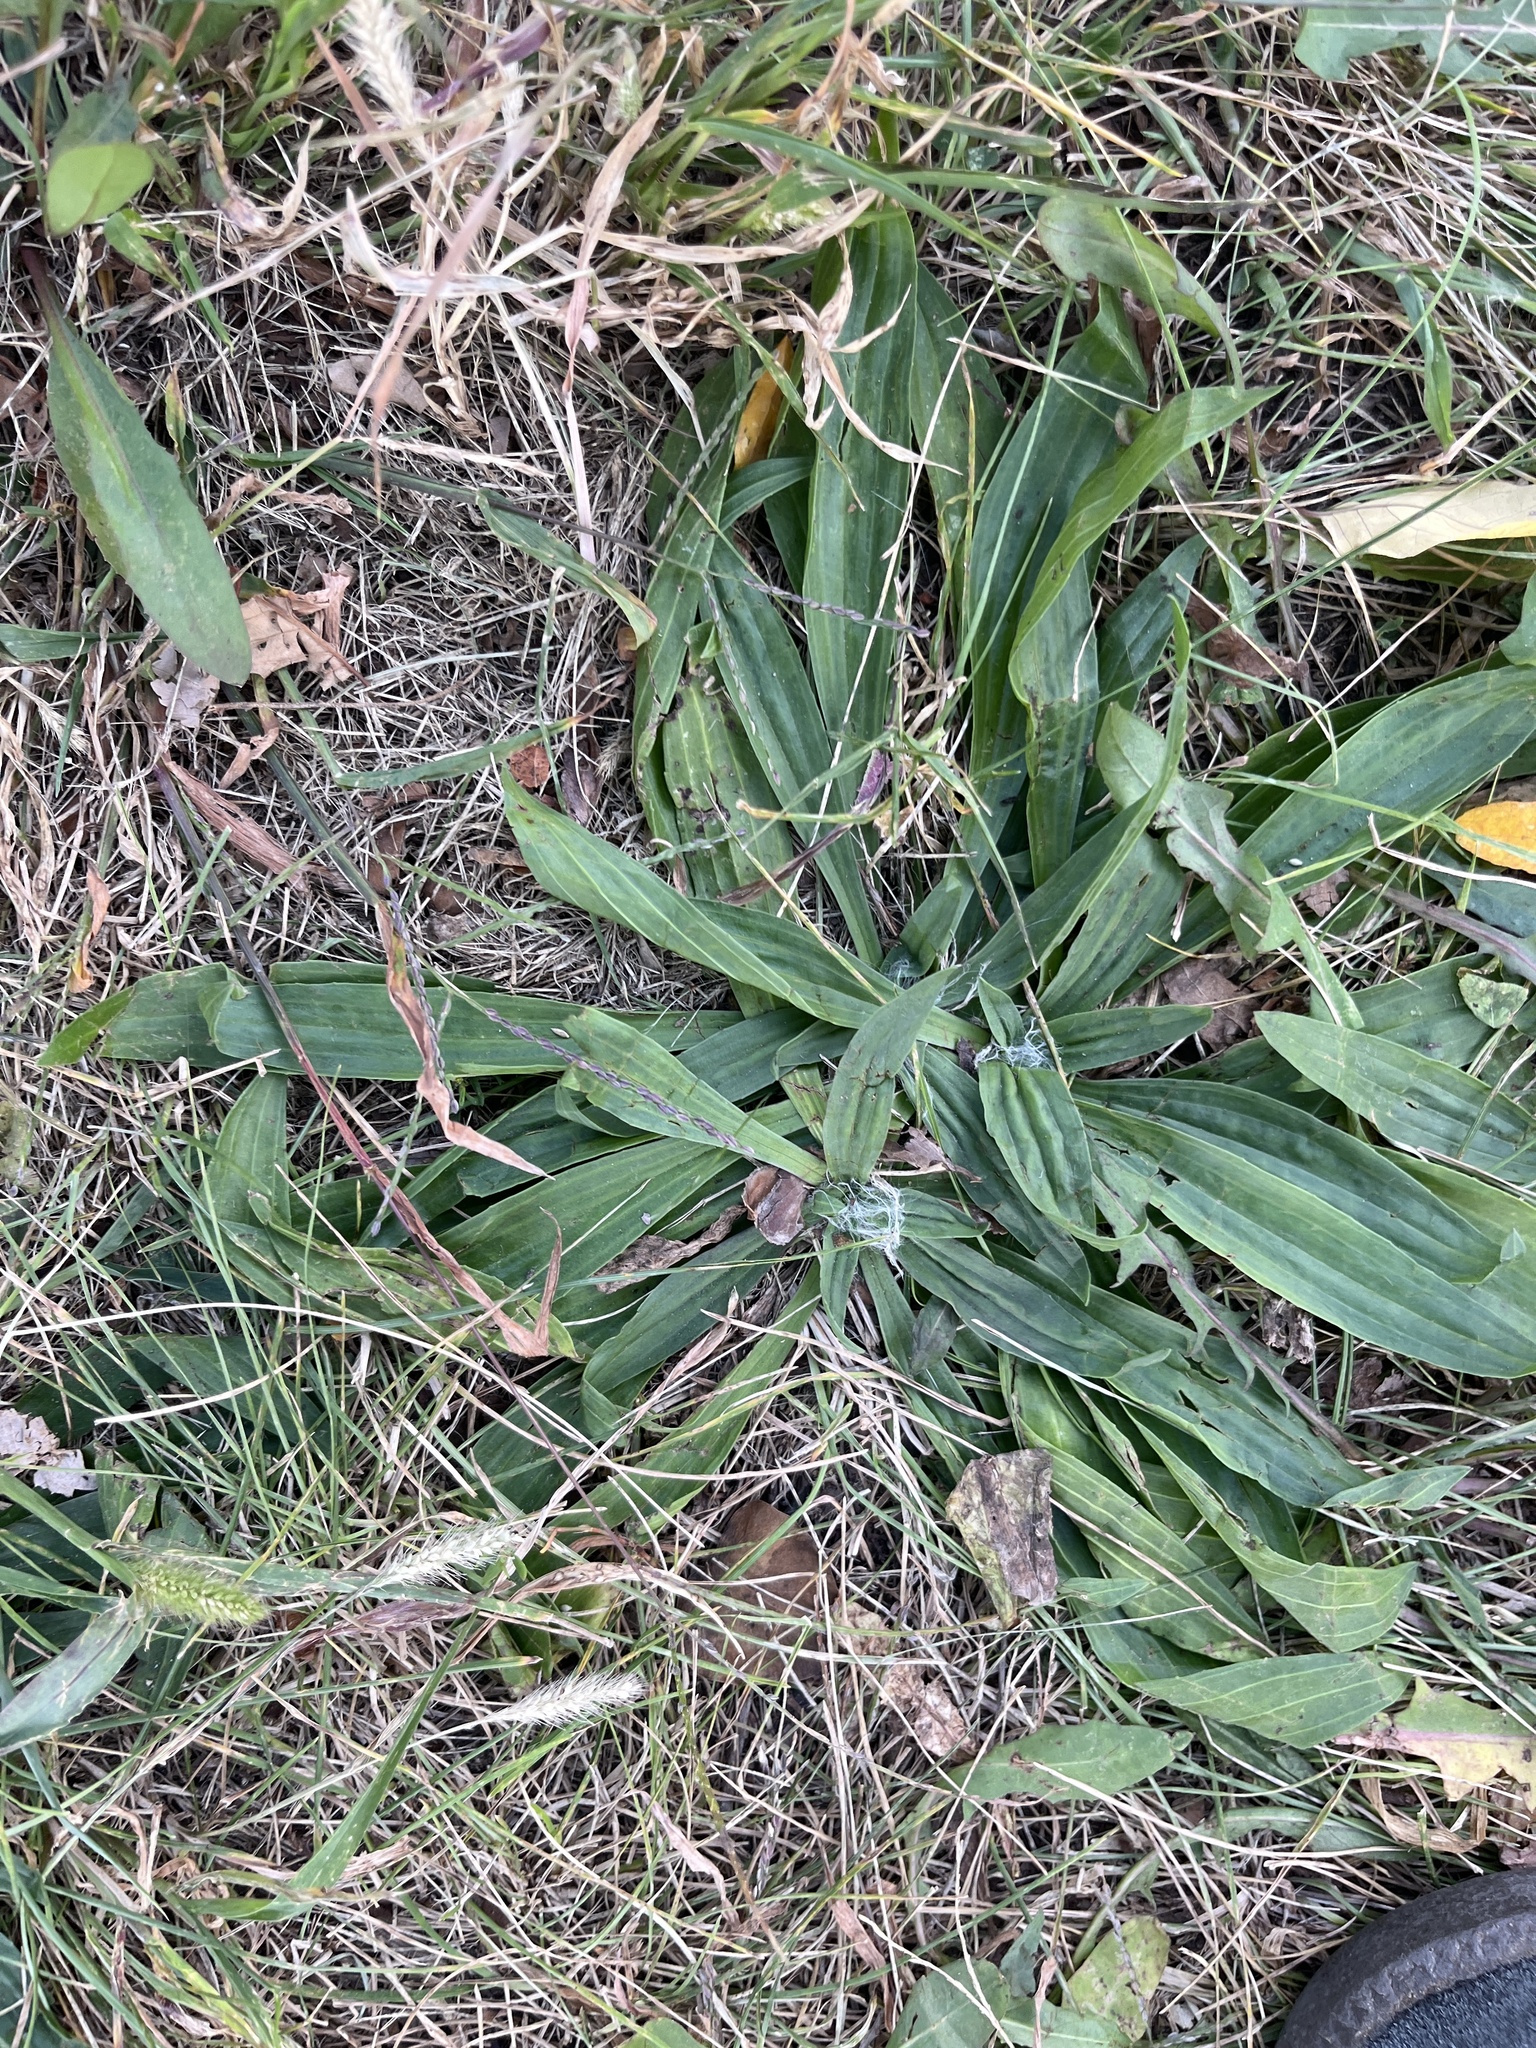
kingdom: Plantae
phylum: Tracheophyta
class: Magnoliopsida
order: Lamiales
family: Plantaginaceae
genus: Plantago
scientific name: Plantago lanceolata
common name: Ribwort plantain
